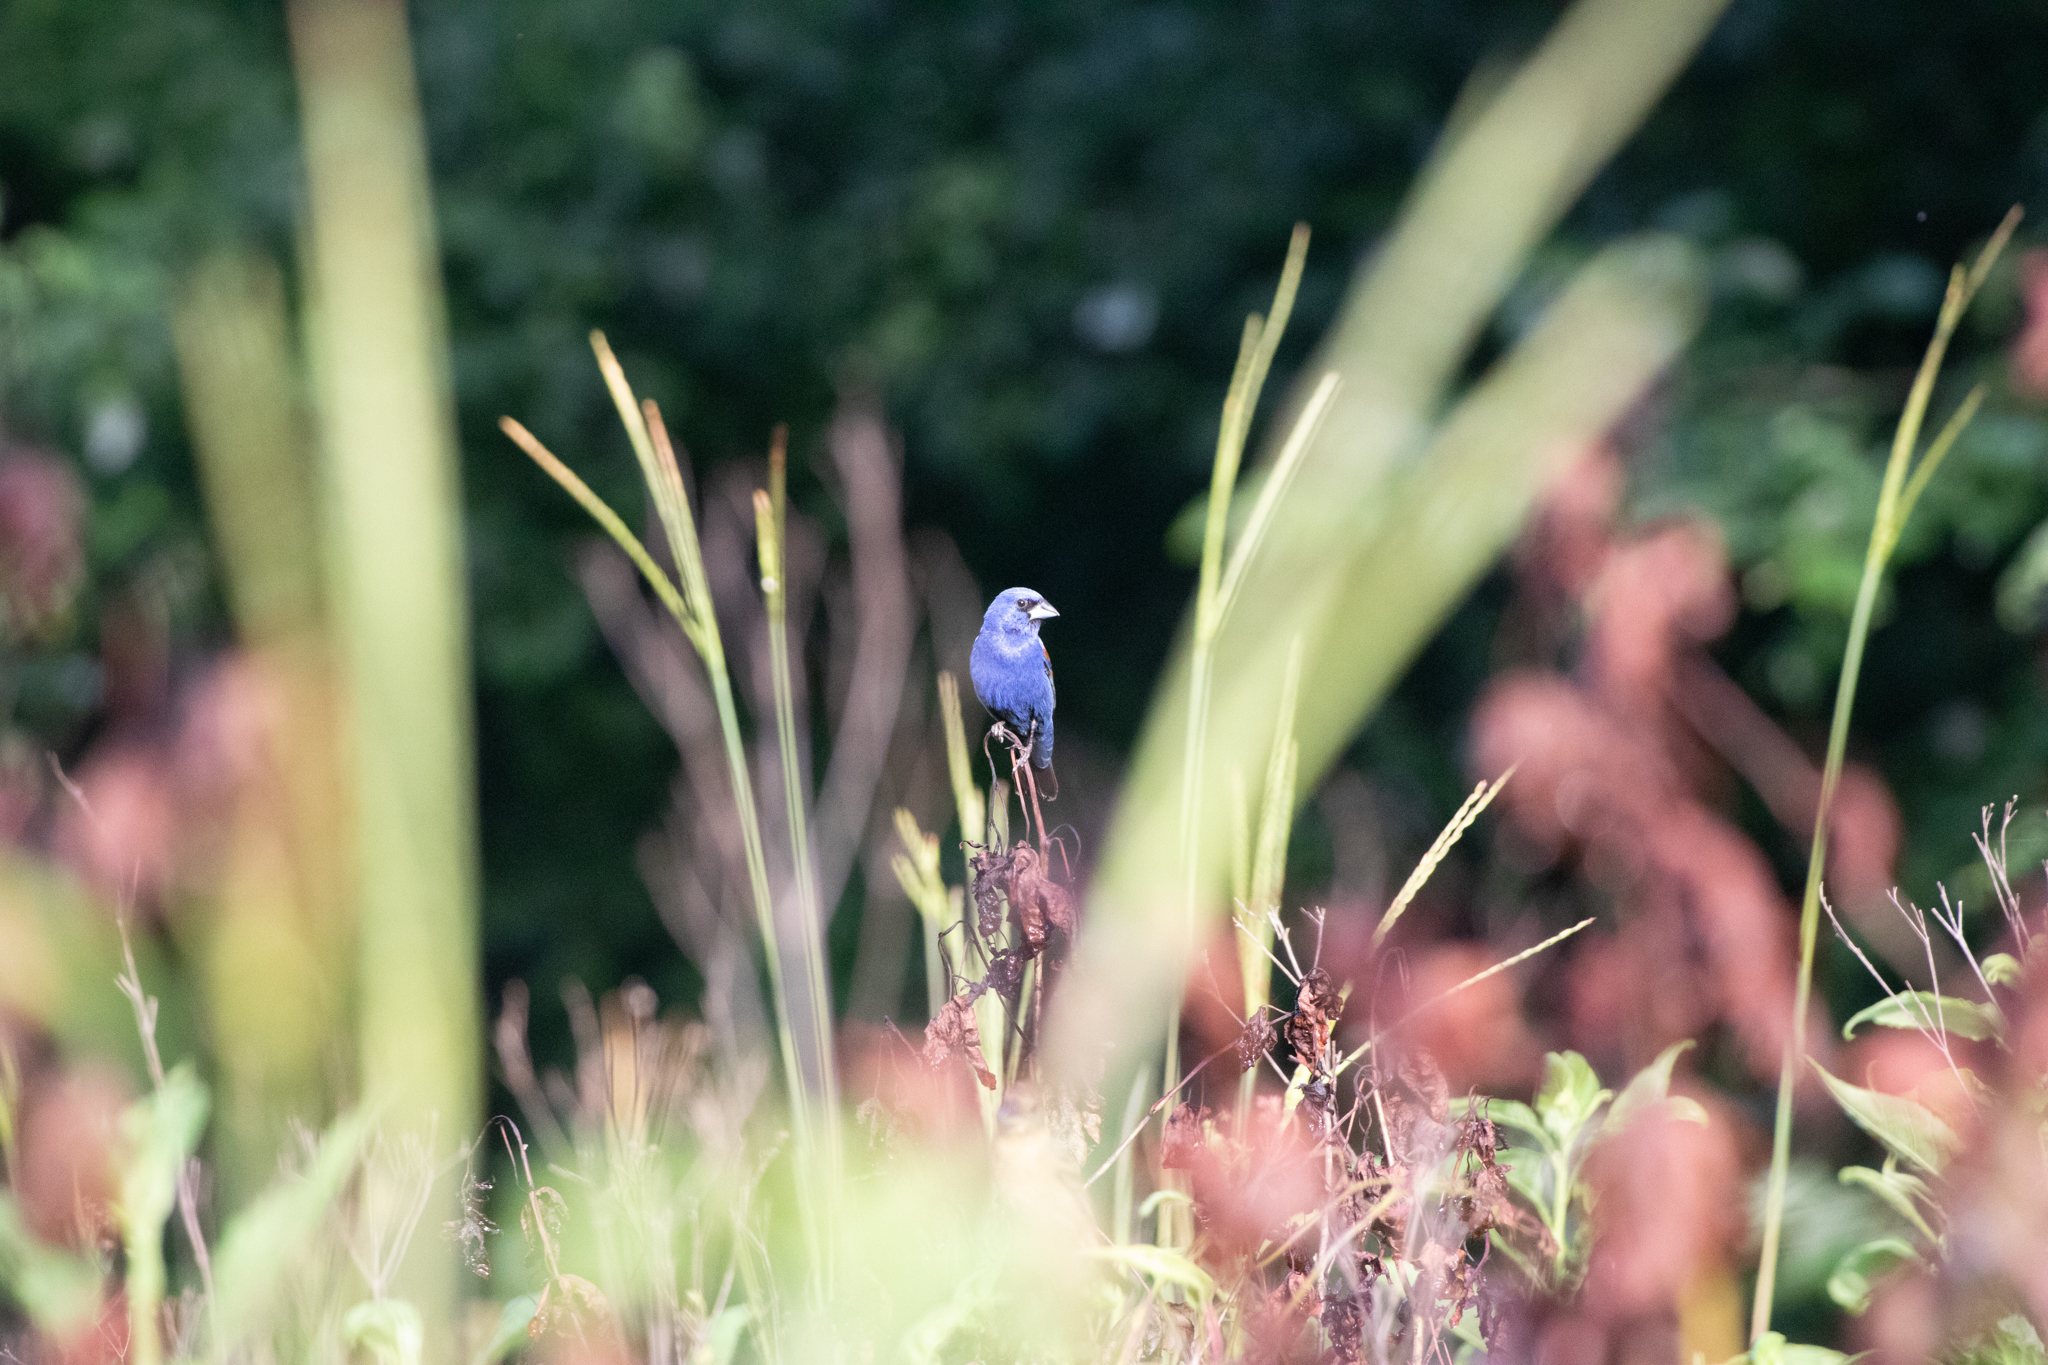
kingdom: Animalia
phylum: Chordata
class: Aves
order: Passeriformes
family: Cardinalidae
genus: Passerina
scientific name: Passerina caerulea
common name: Blue grosbeak
